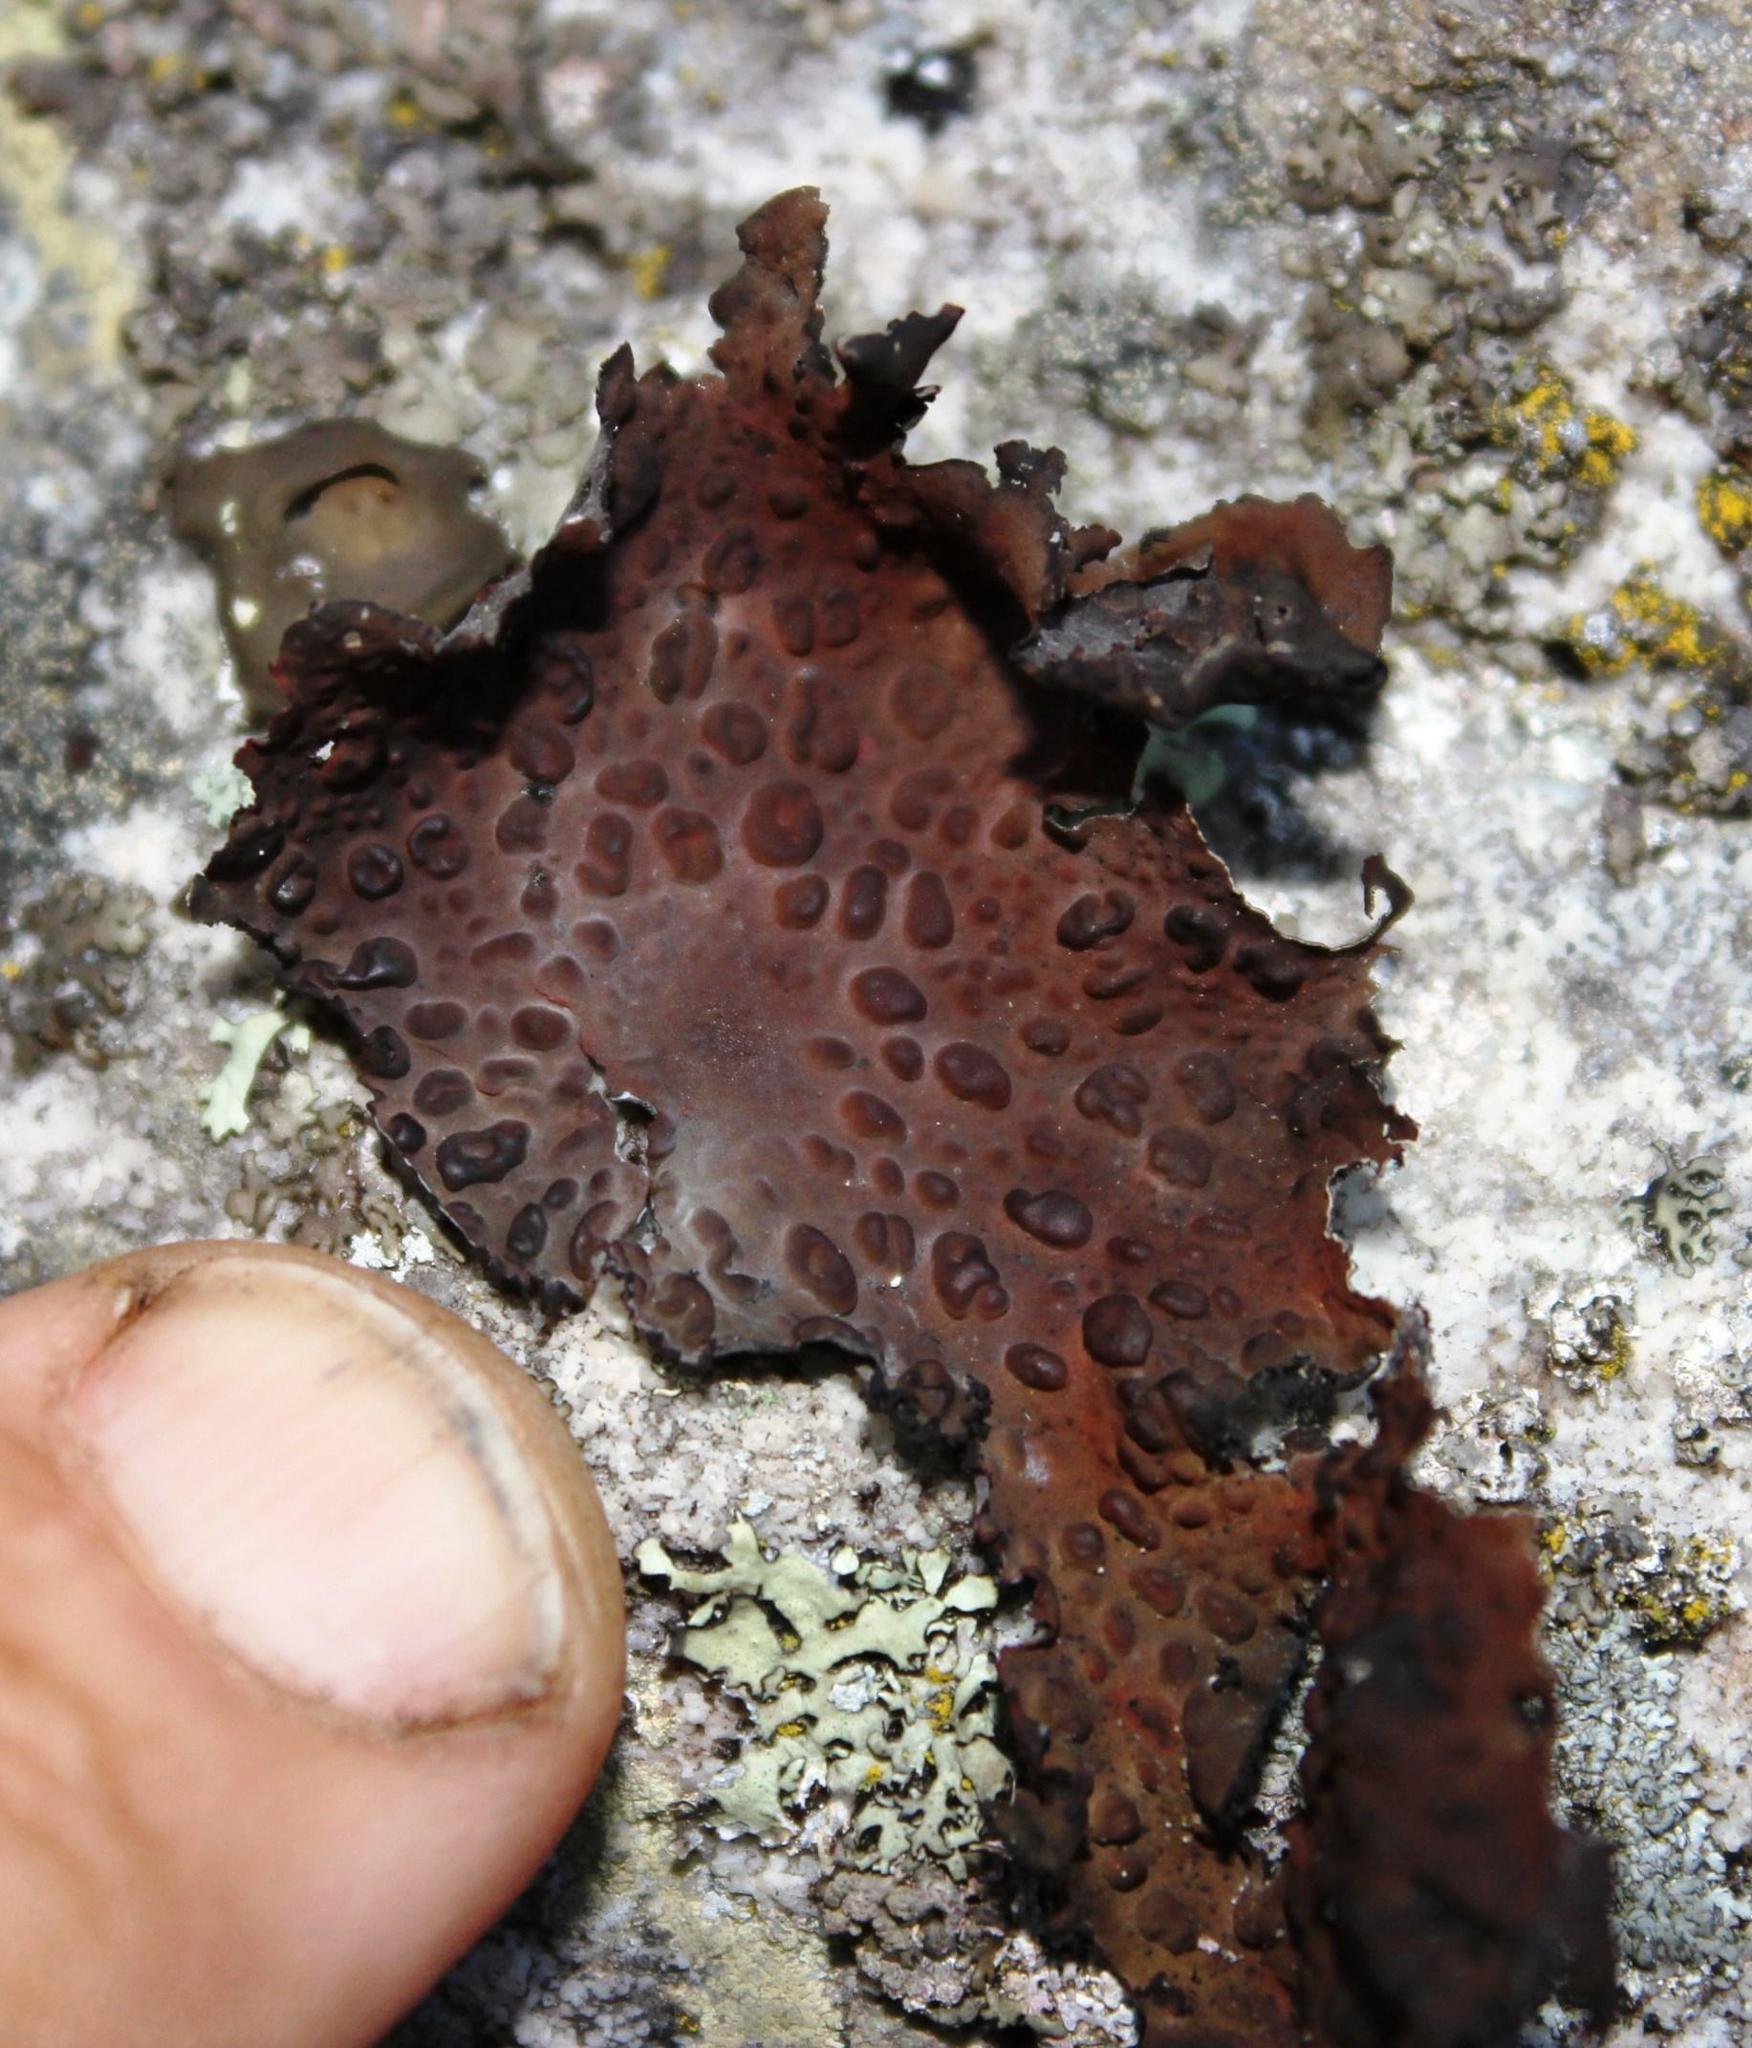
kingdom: Fungi
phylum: Ascomycota
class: Lecanoromycetes
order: Umbilicariales
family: Umbilicariaceae
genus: Lasallia
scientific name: Lasallia rubiginosa
